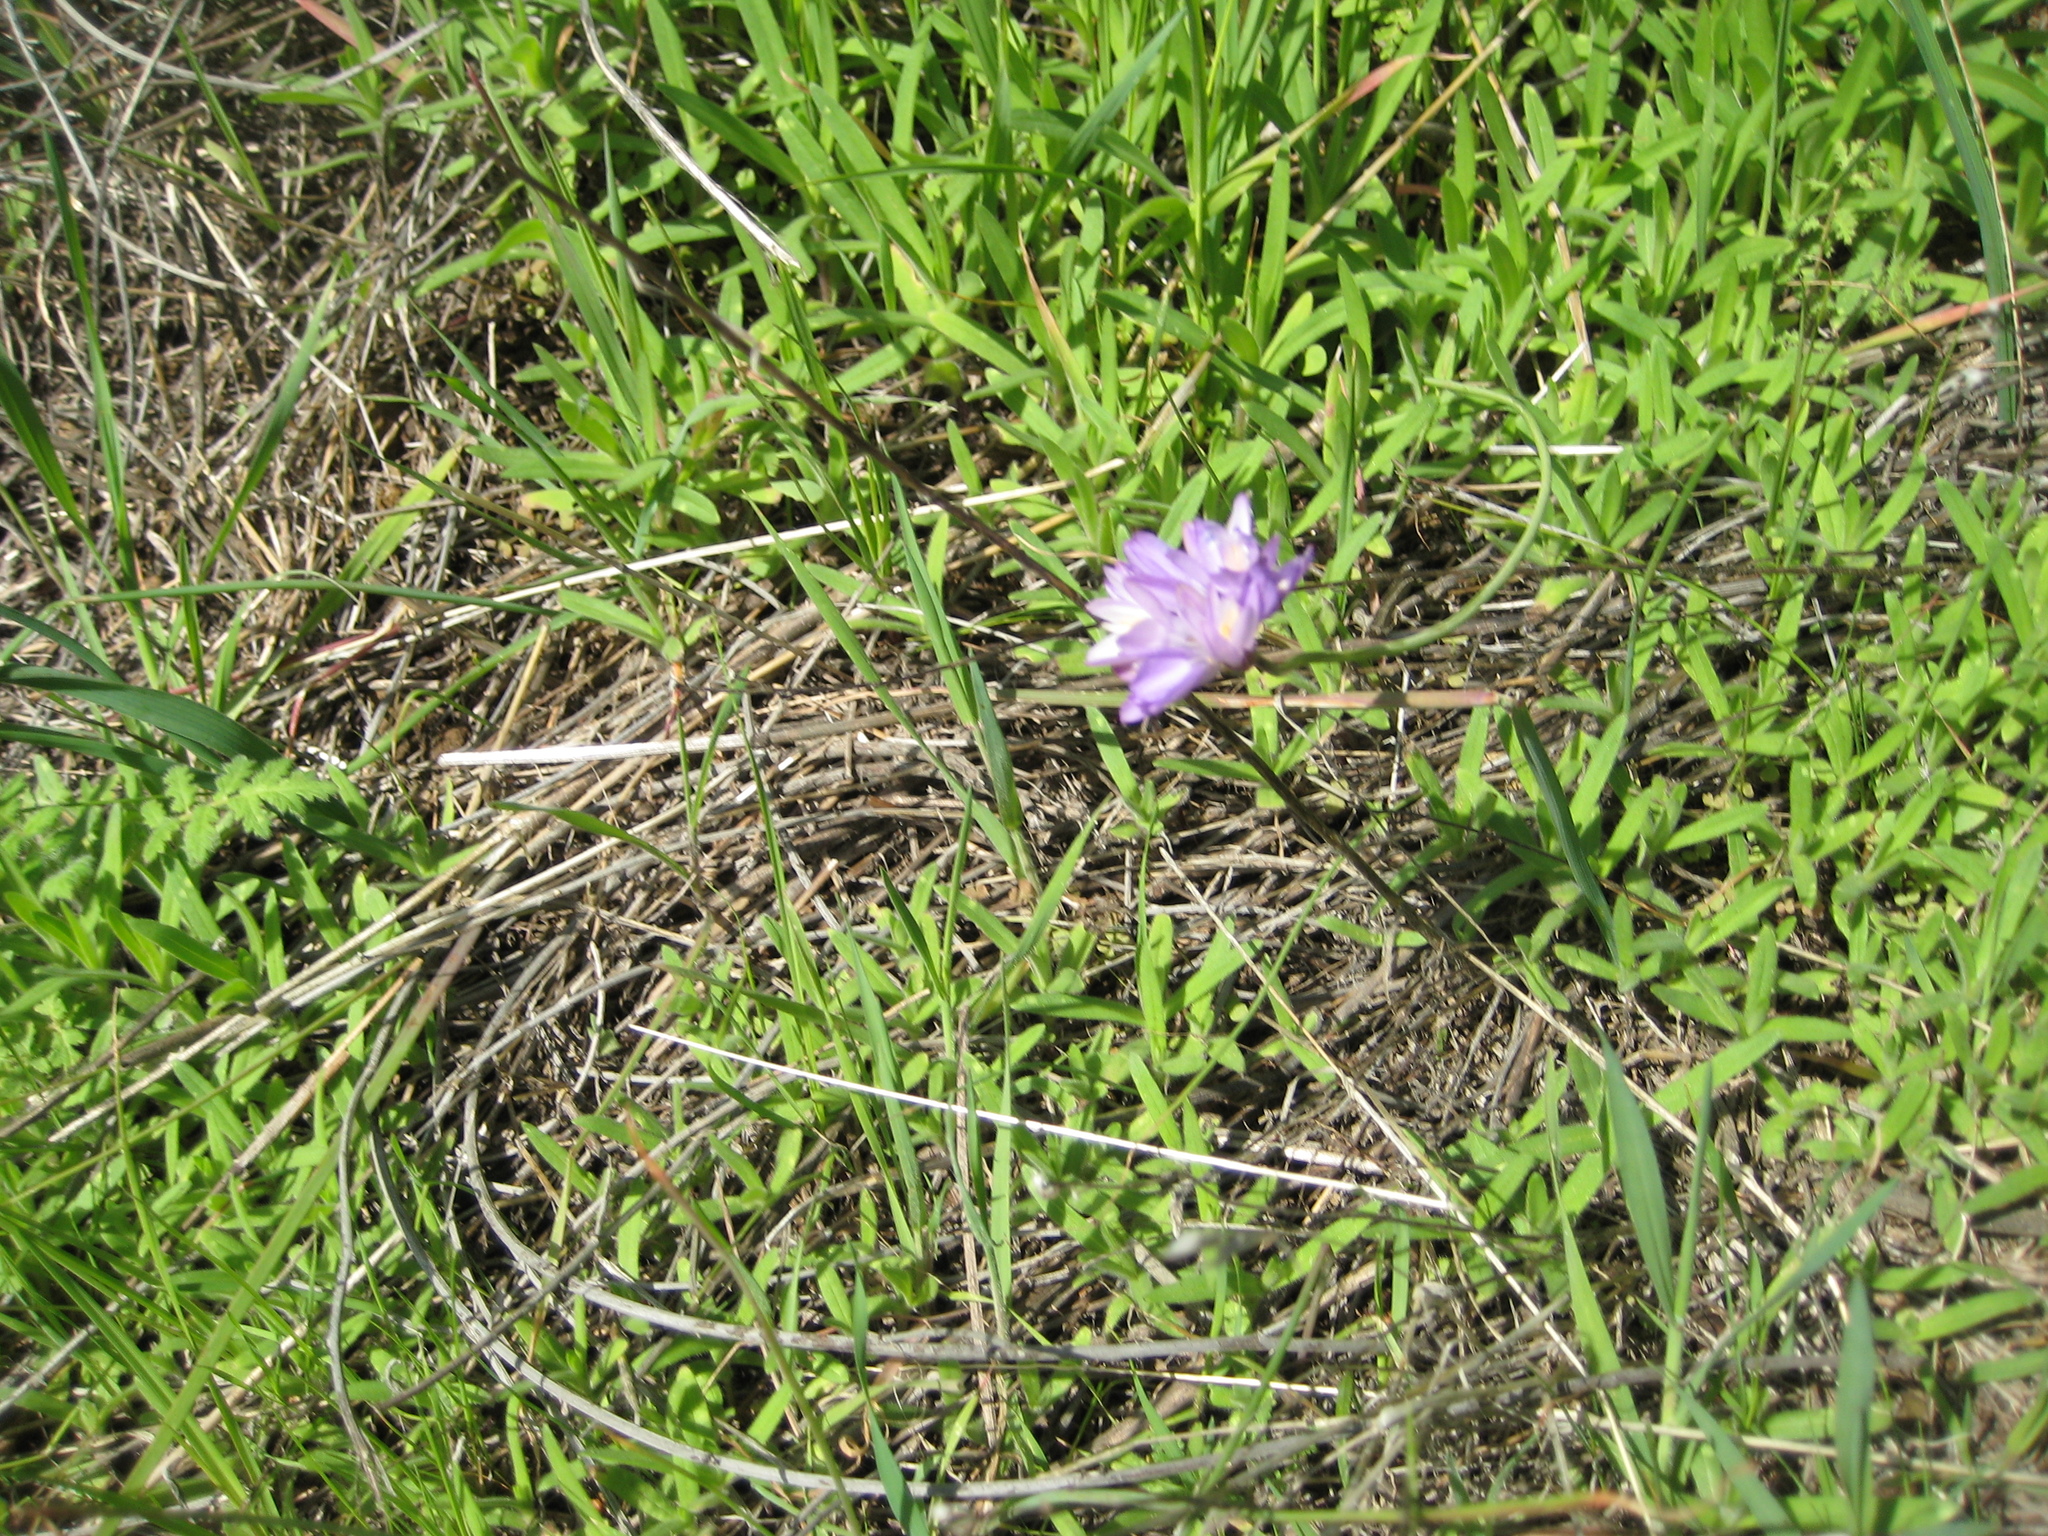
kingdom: Plantae
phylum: Tracheophyta
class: Liliopsida
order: Asparagales
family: Asparagaceae
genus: Dipterostemon
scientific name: Dipterostemon capitatus
